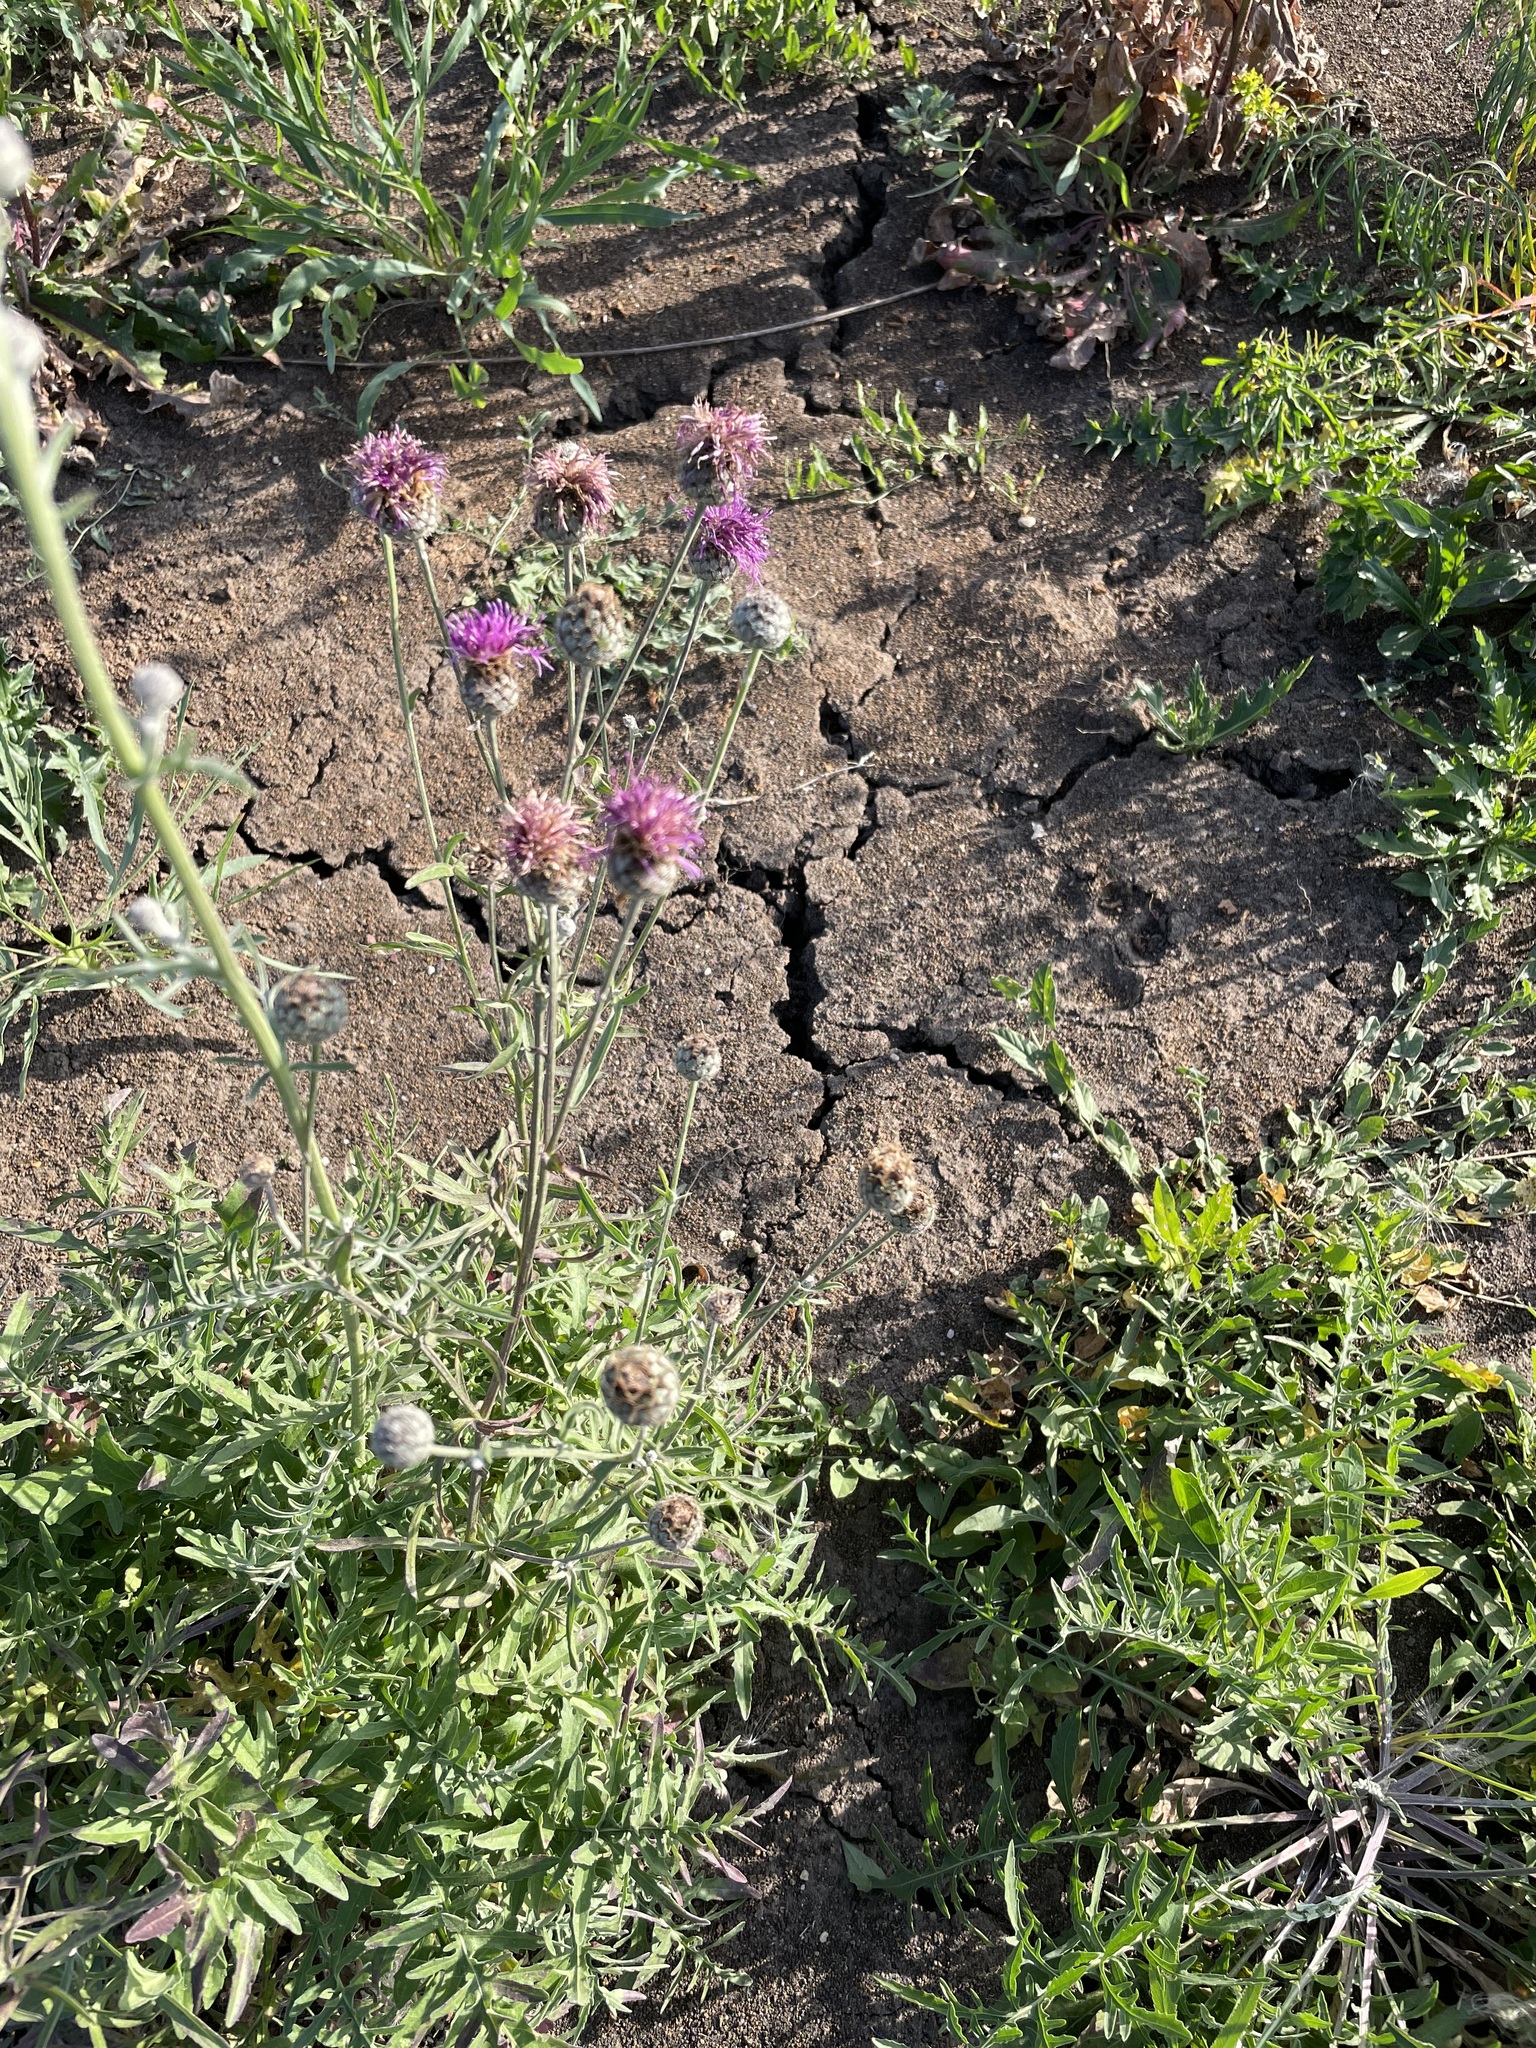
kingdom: Plantae
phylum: Tracheophyta
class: Magnoliopsida
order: Asterales
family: Asteraceae
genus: Centaurea
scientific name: Centaurea scabiosa
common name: Greater knapweed
